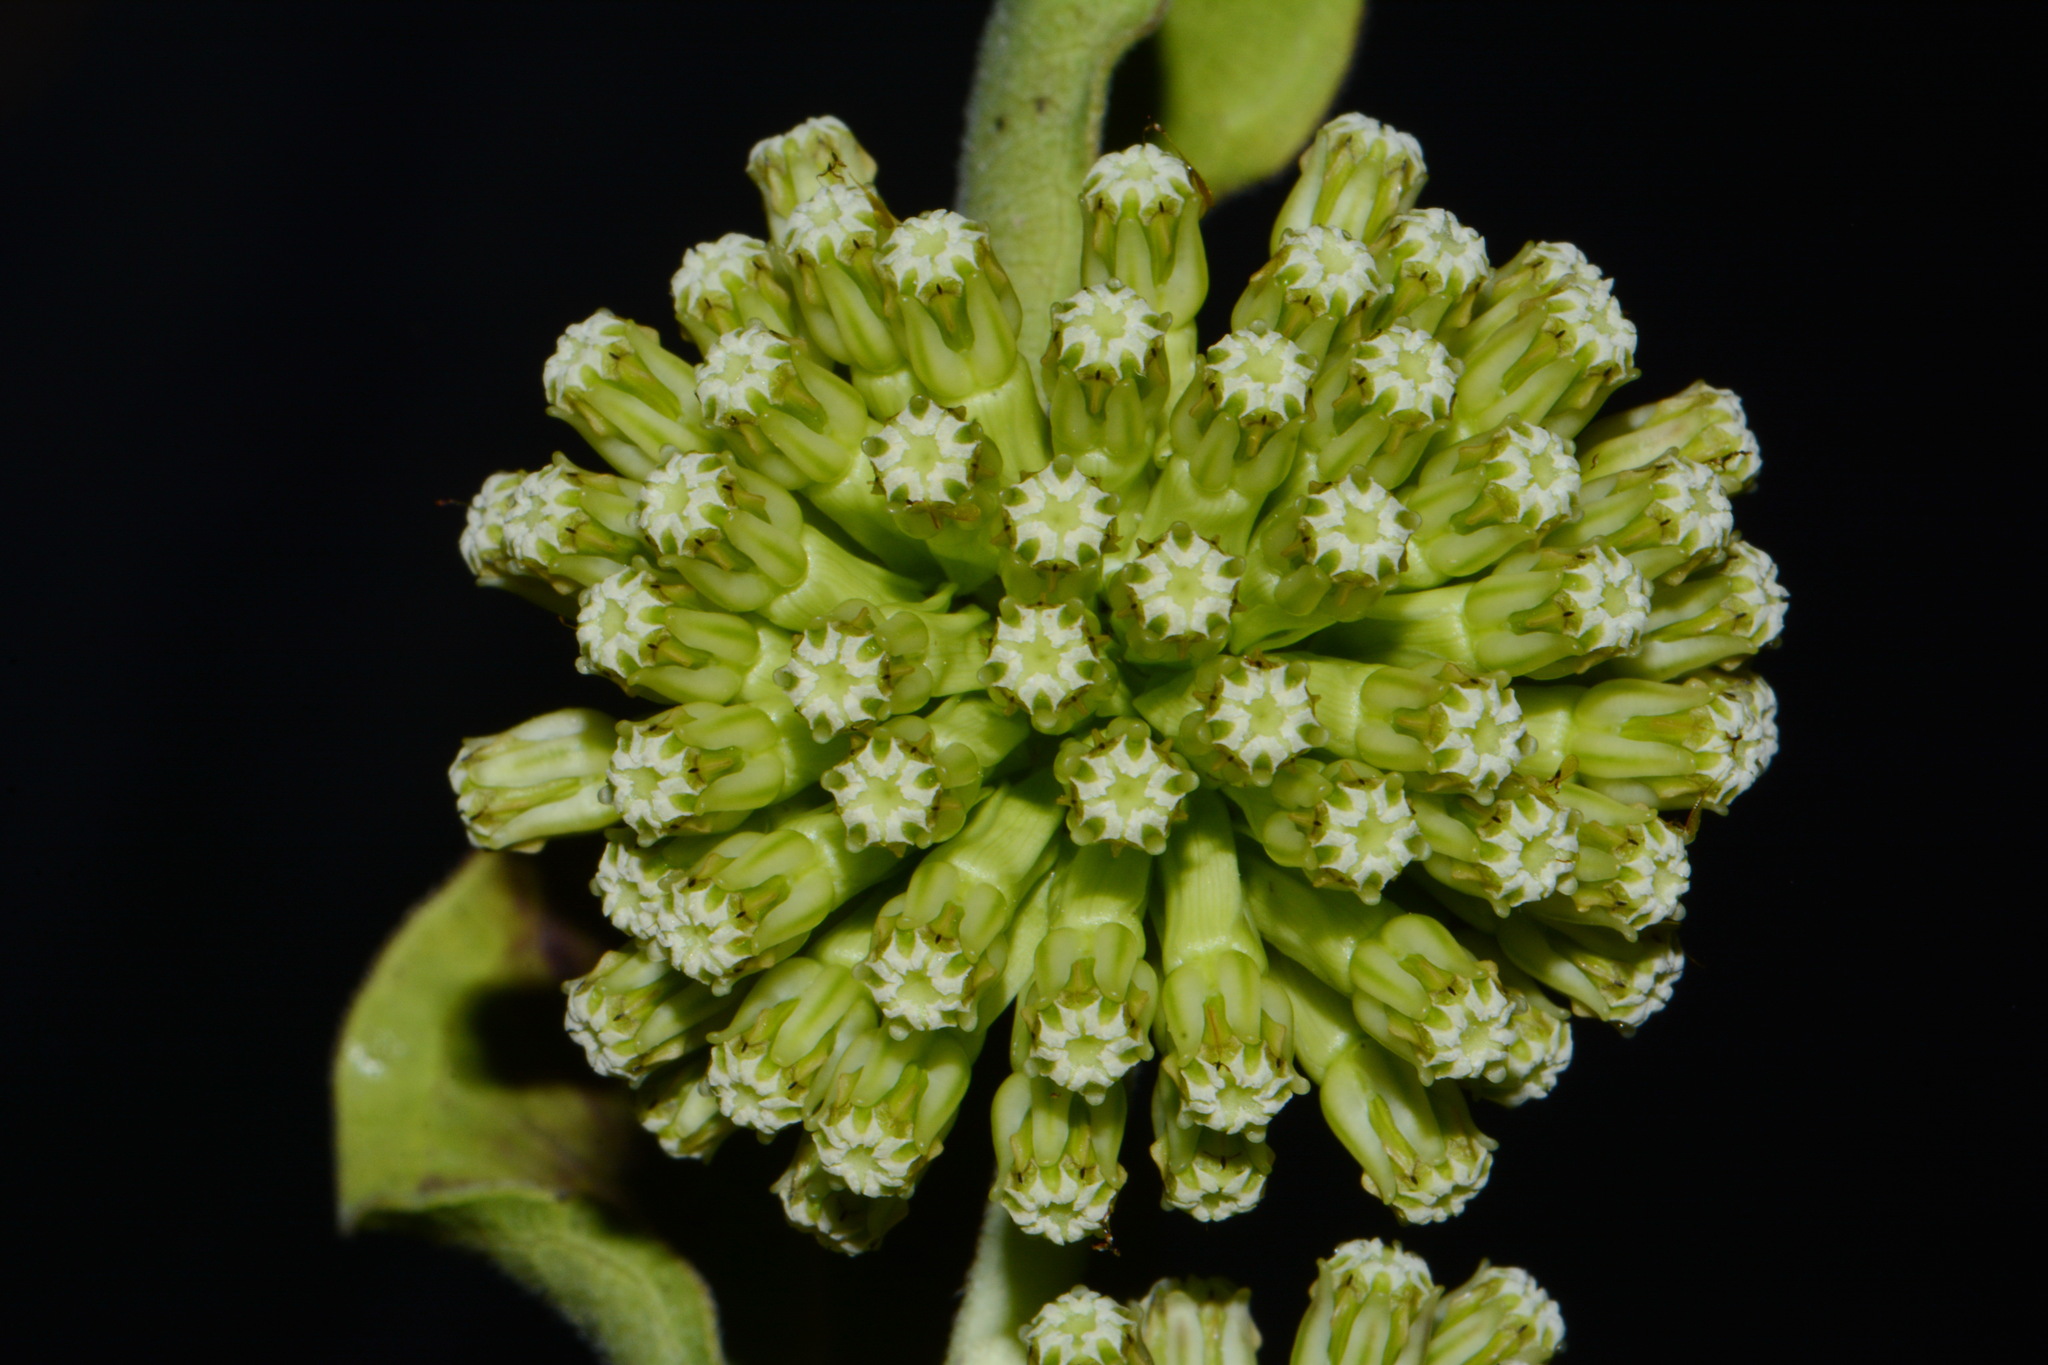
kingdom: Plantae
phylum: Tracheophyta
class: Magnoliopsida
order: Gentianales
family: Apocynaceae
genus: Asclepias
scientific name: Asclepias viridiflora
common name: Green comet milkweed
